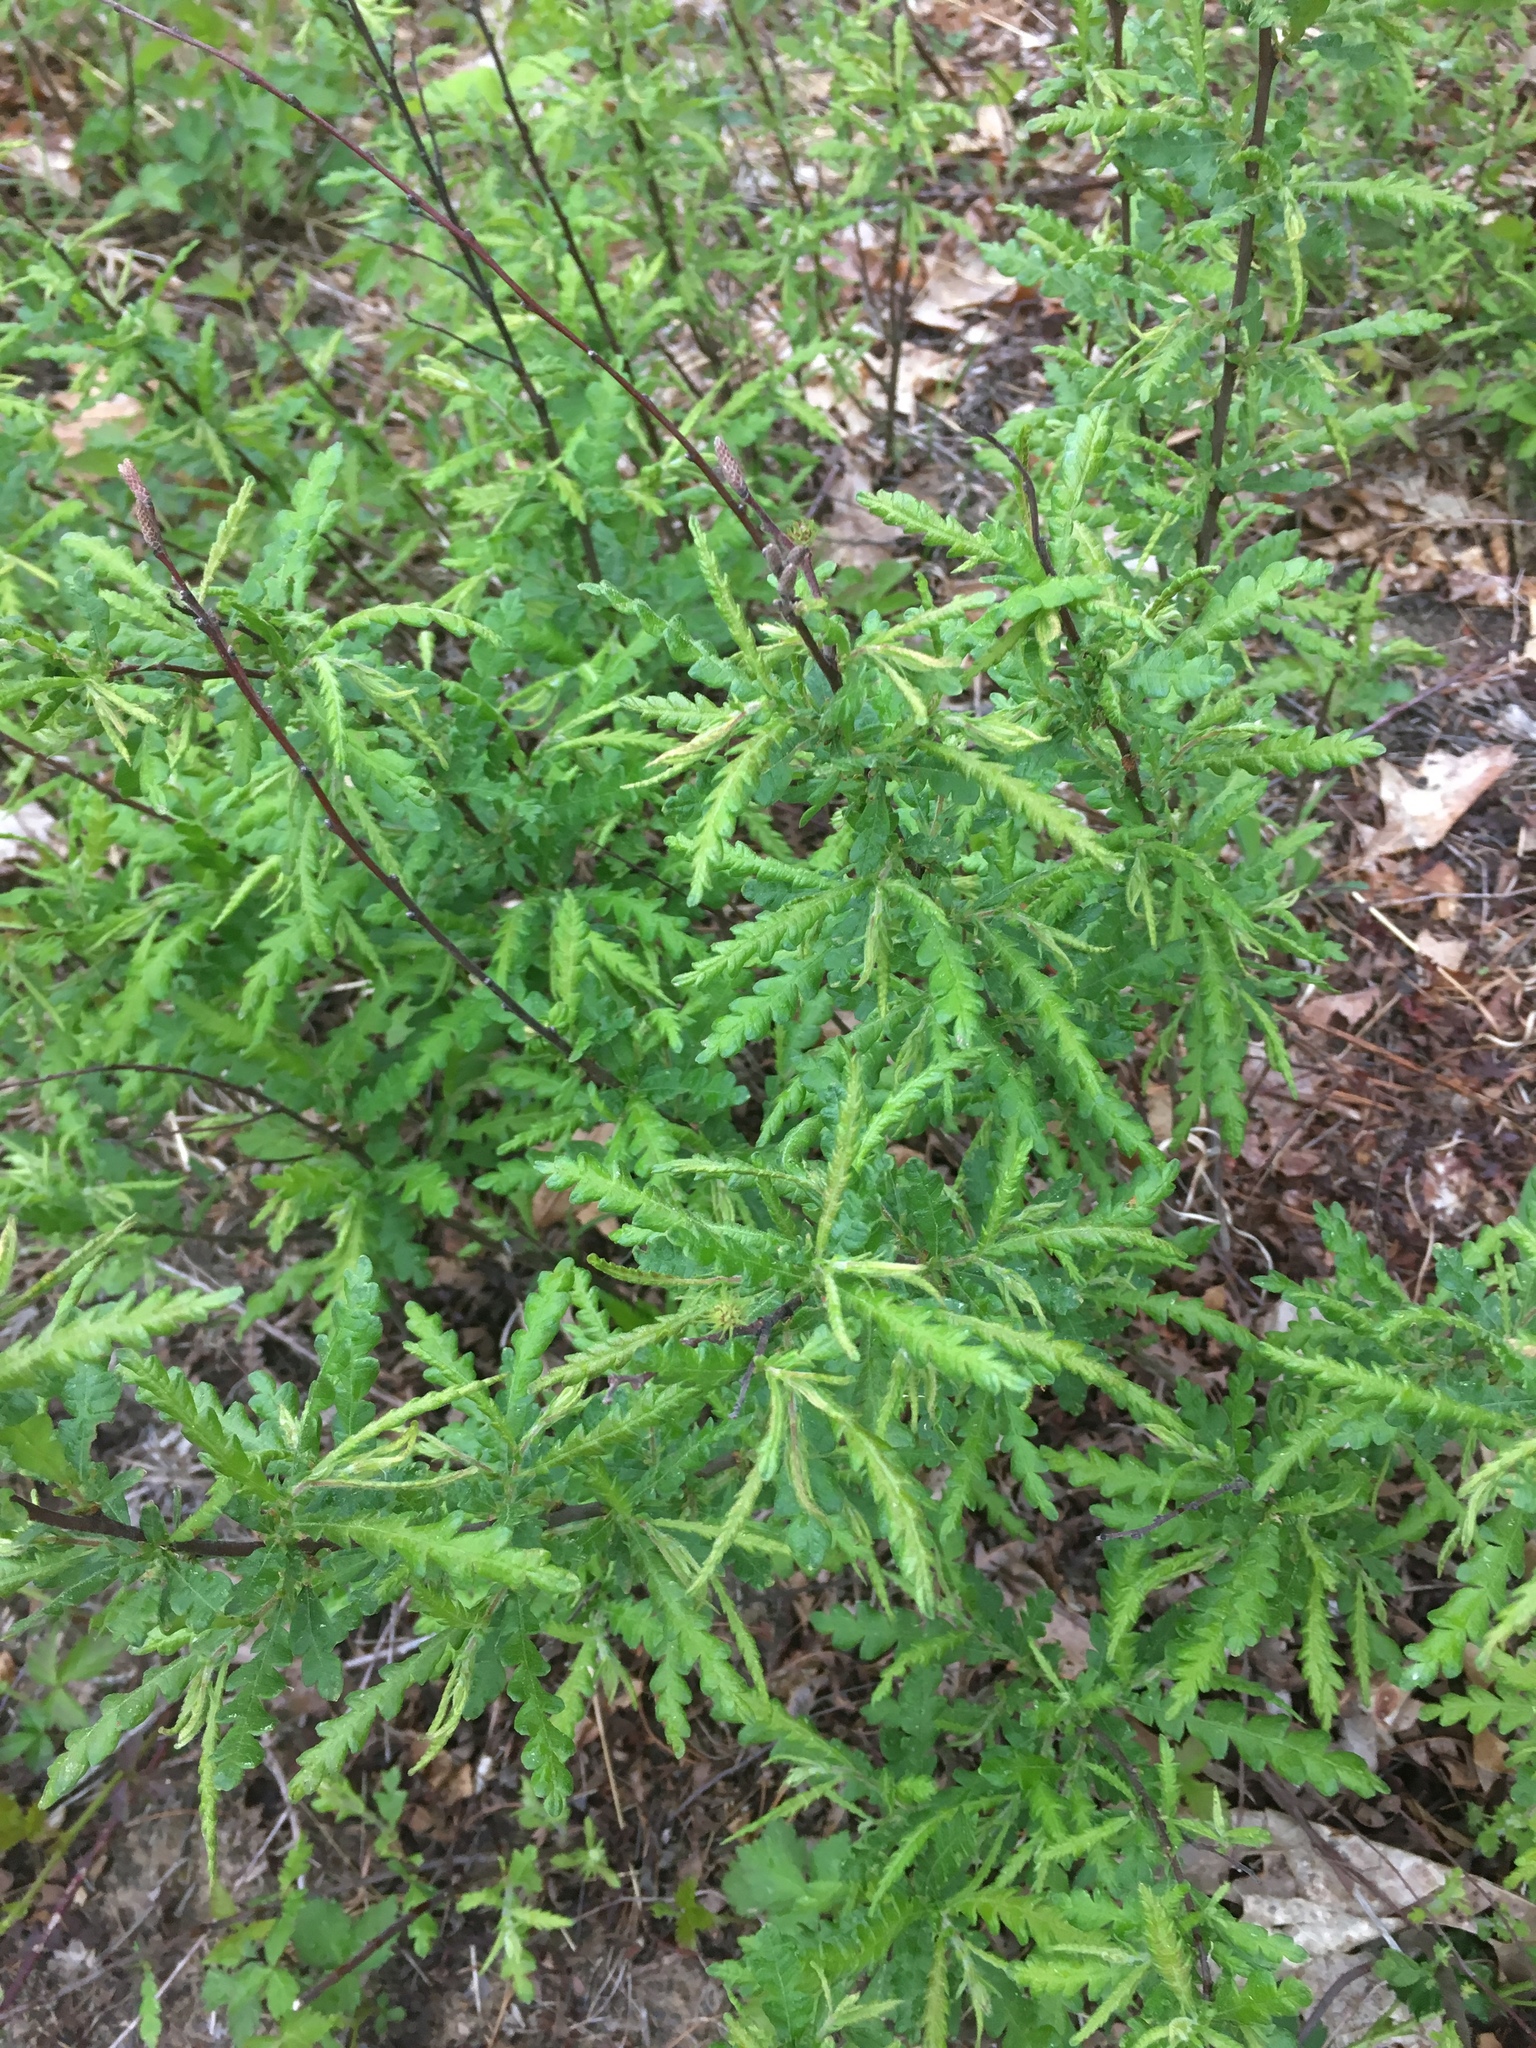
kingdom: Plantae
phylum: Tracheophyta
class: Magnoliopsida
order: Fagales
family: Myricaceae
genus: Comptonia
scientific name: Comptonia peregrina
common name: Sweet-fern
